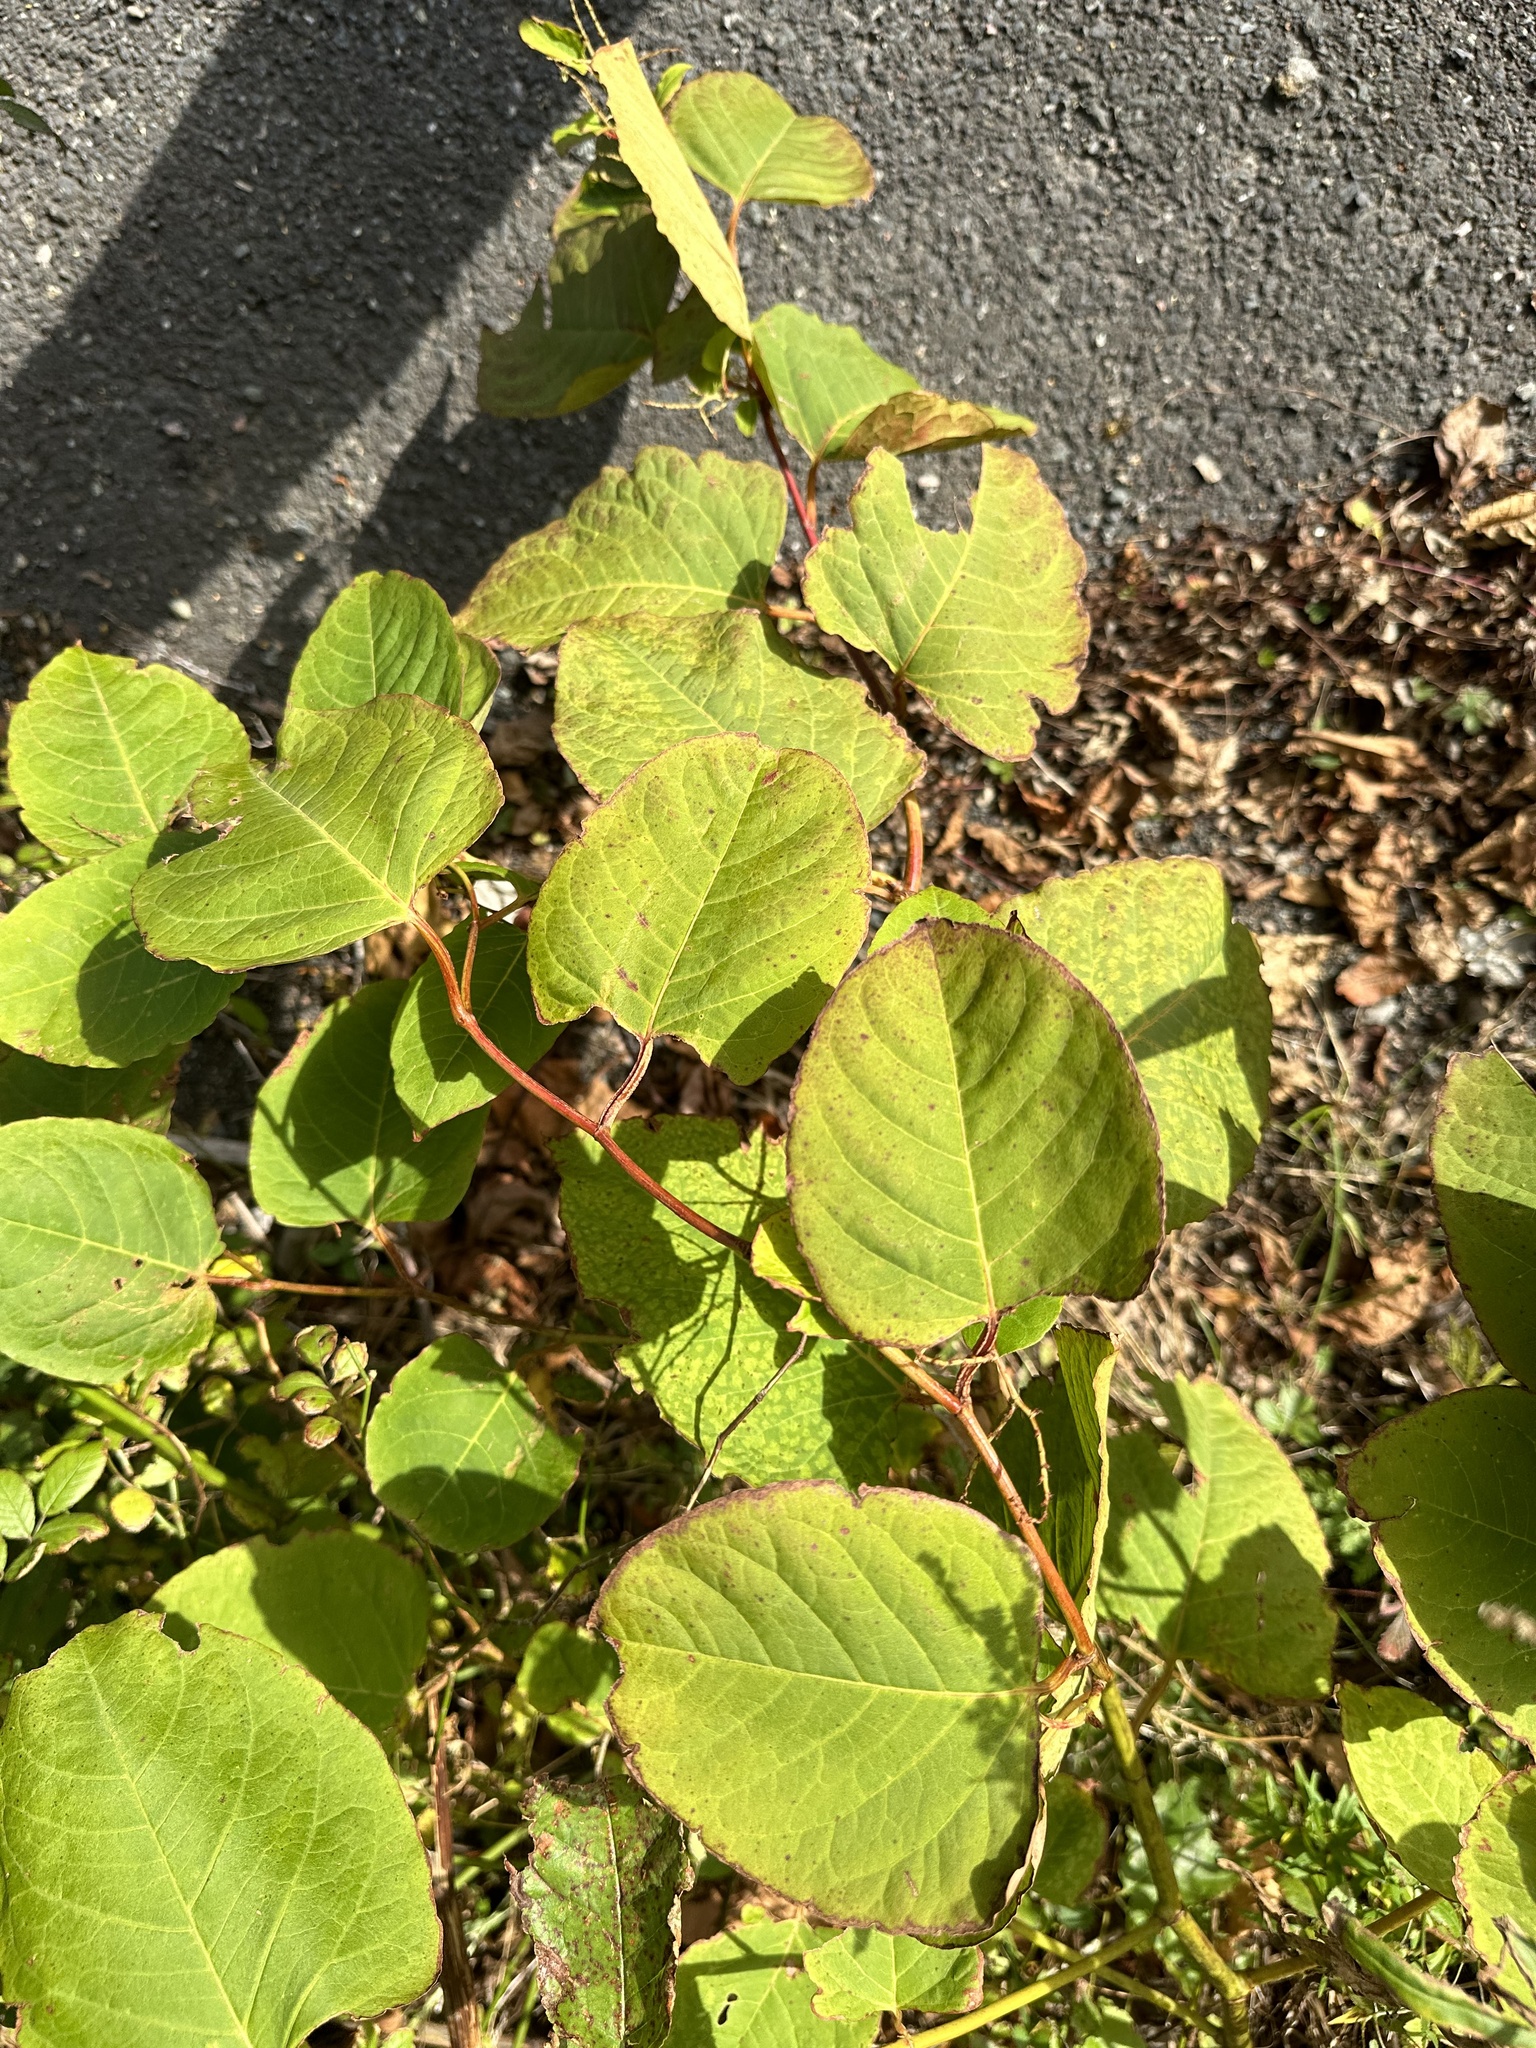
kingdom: Plantae
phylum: Tracheophyta
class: Magnoliopsida
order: Caryophyllales
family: Polygonaceae
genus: Reynoutria
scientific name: Reynoutria japonica
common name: Japanese knotweed
